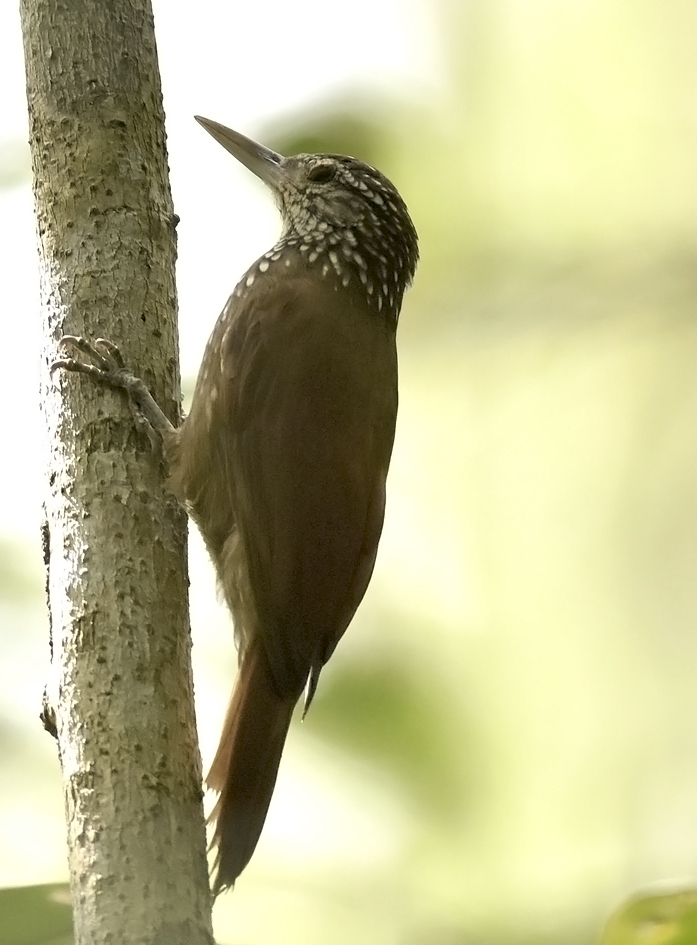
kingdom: Animalia
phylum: Chordata
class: Aves
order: Passeriformes
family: Furnariidae
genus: Xiphorhynchus
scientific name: Xiphorhynchus picus
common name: Straight-billed woodcreeper
